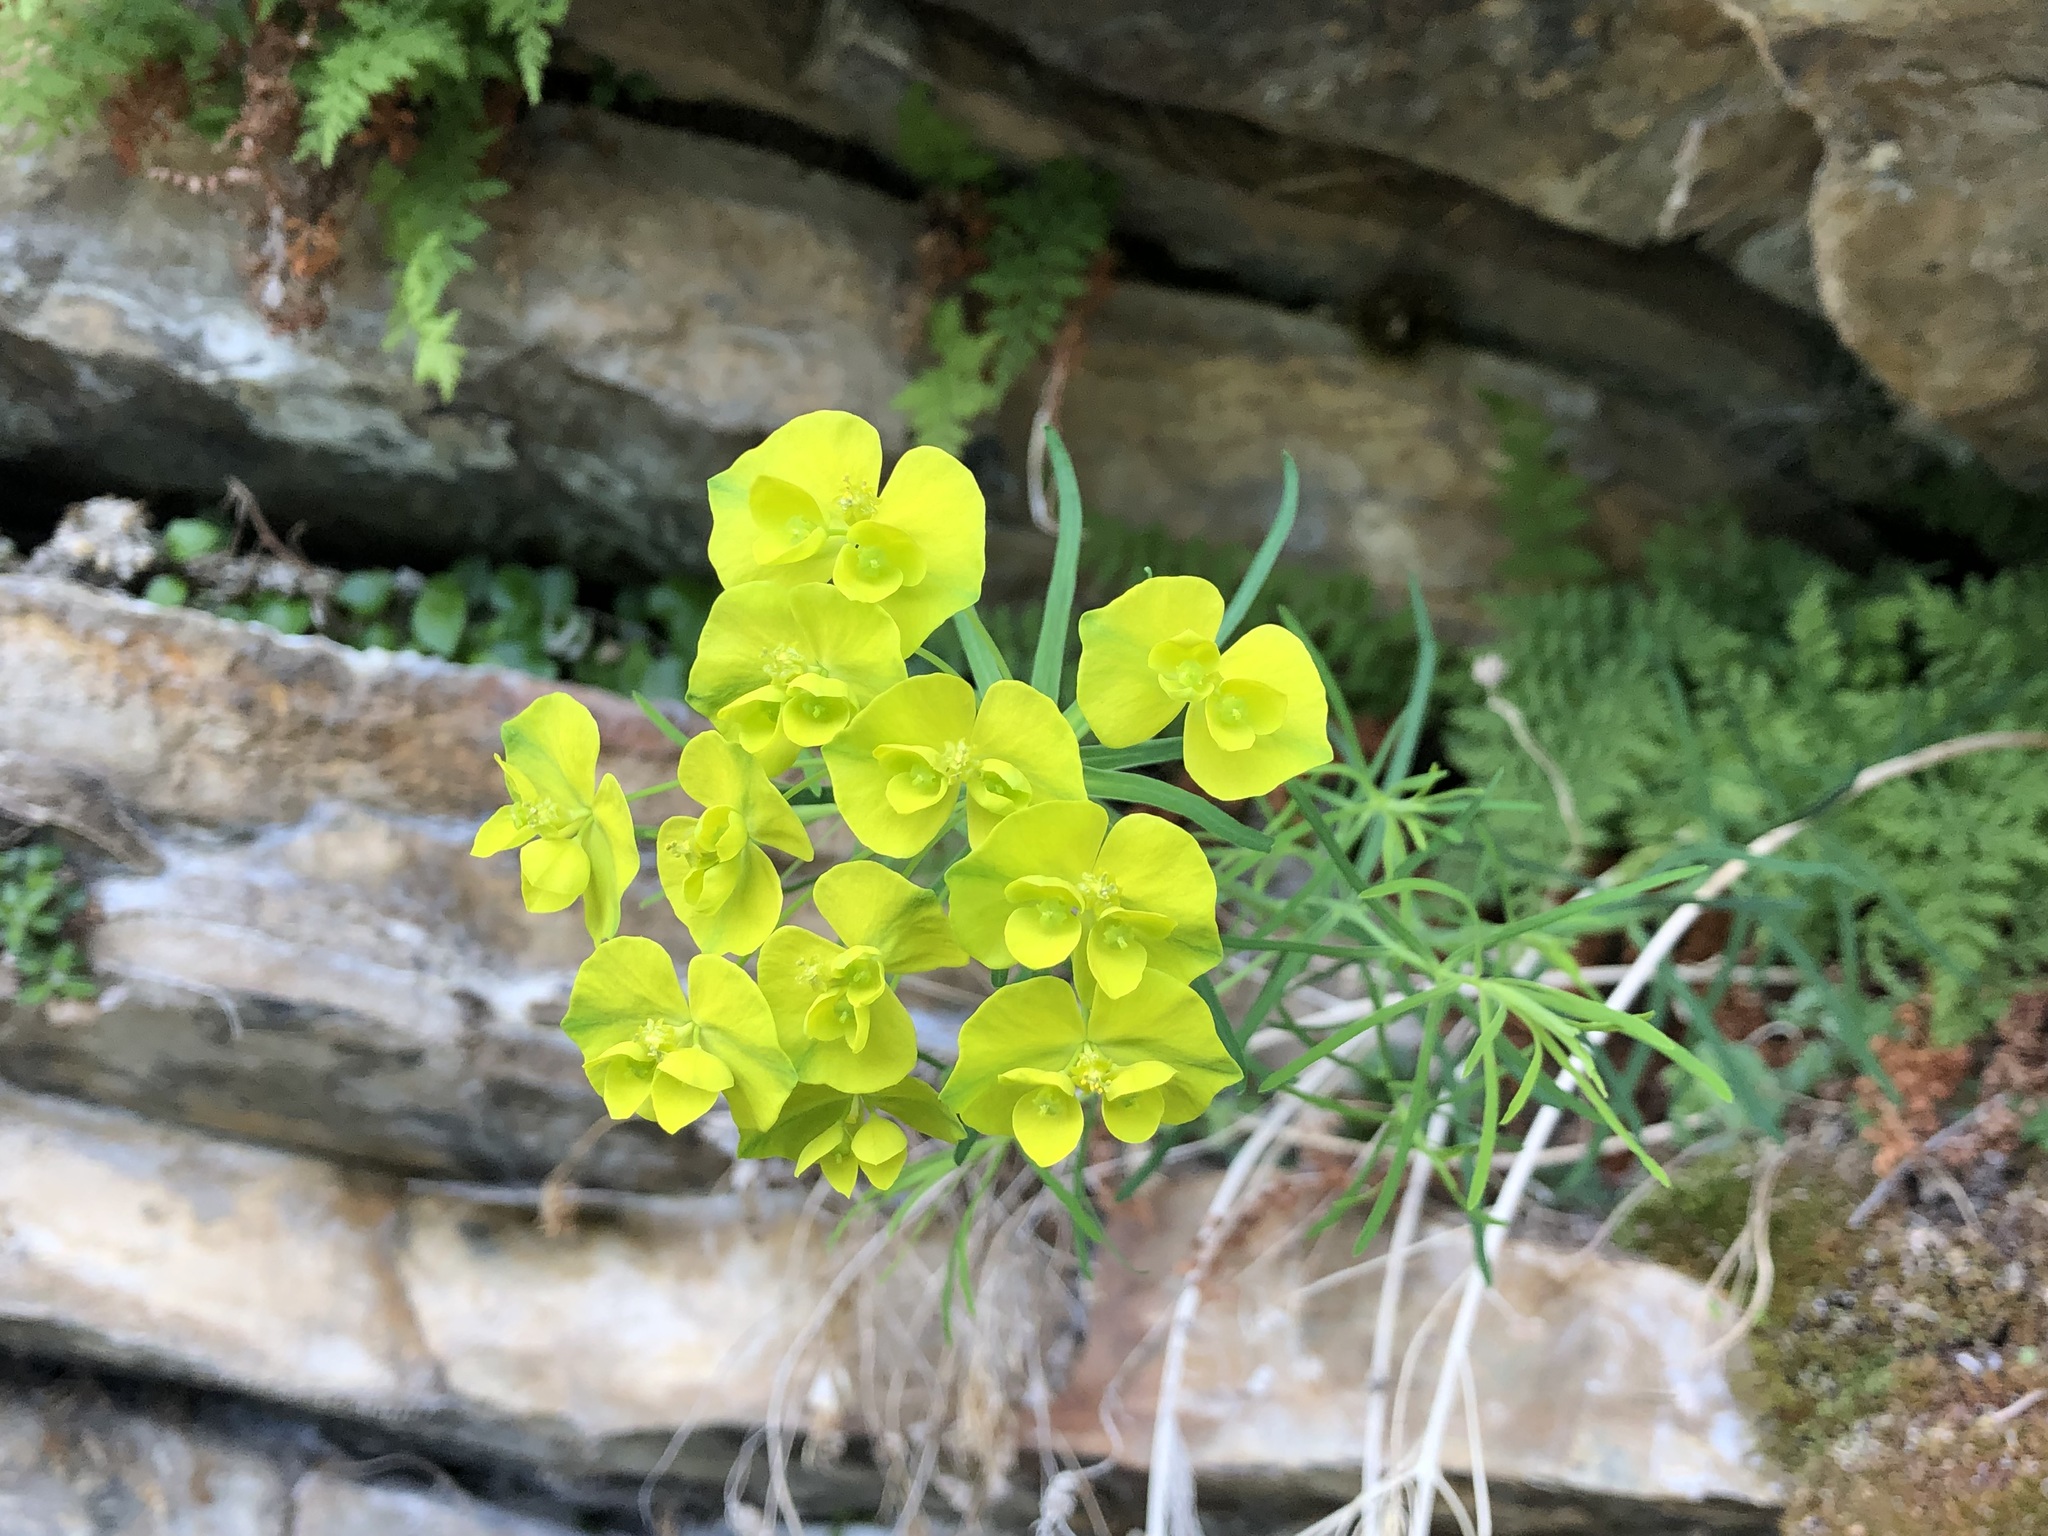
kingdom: Plantae
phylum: Tracheophyta
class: Magnoliopsida
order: Malpighiales
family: Euphorbiaceae
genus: Euphorbia
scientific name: Euphorbia cyparissias
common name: Cypress spurge
